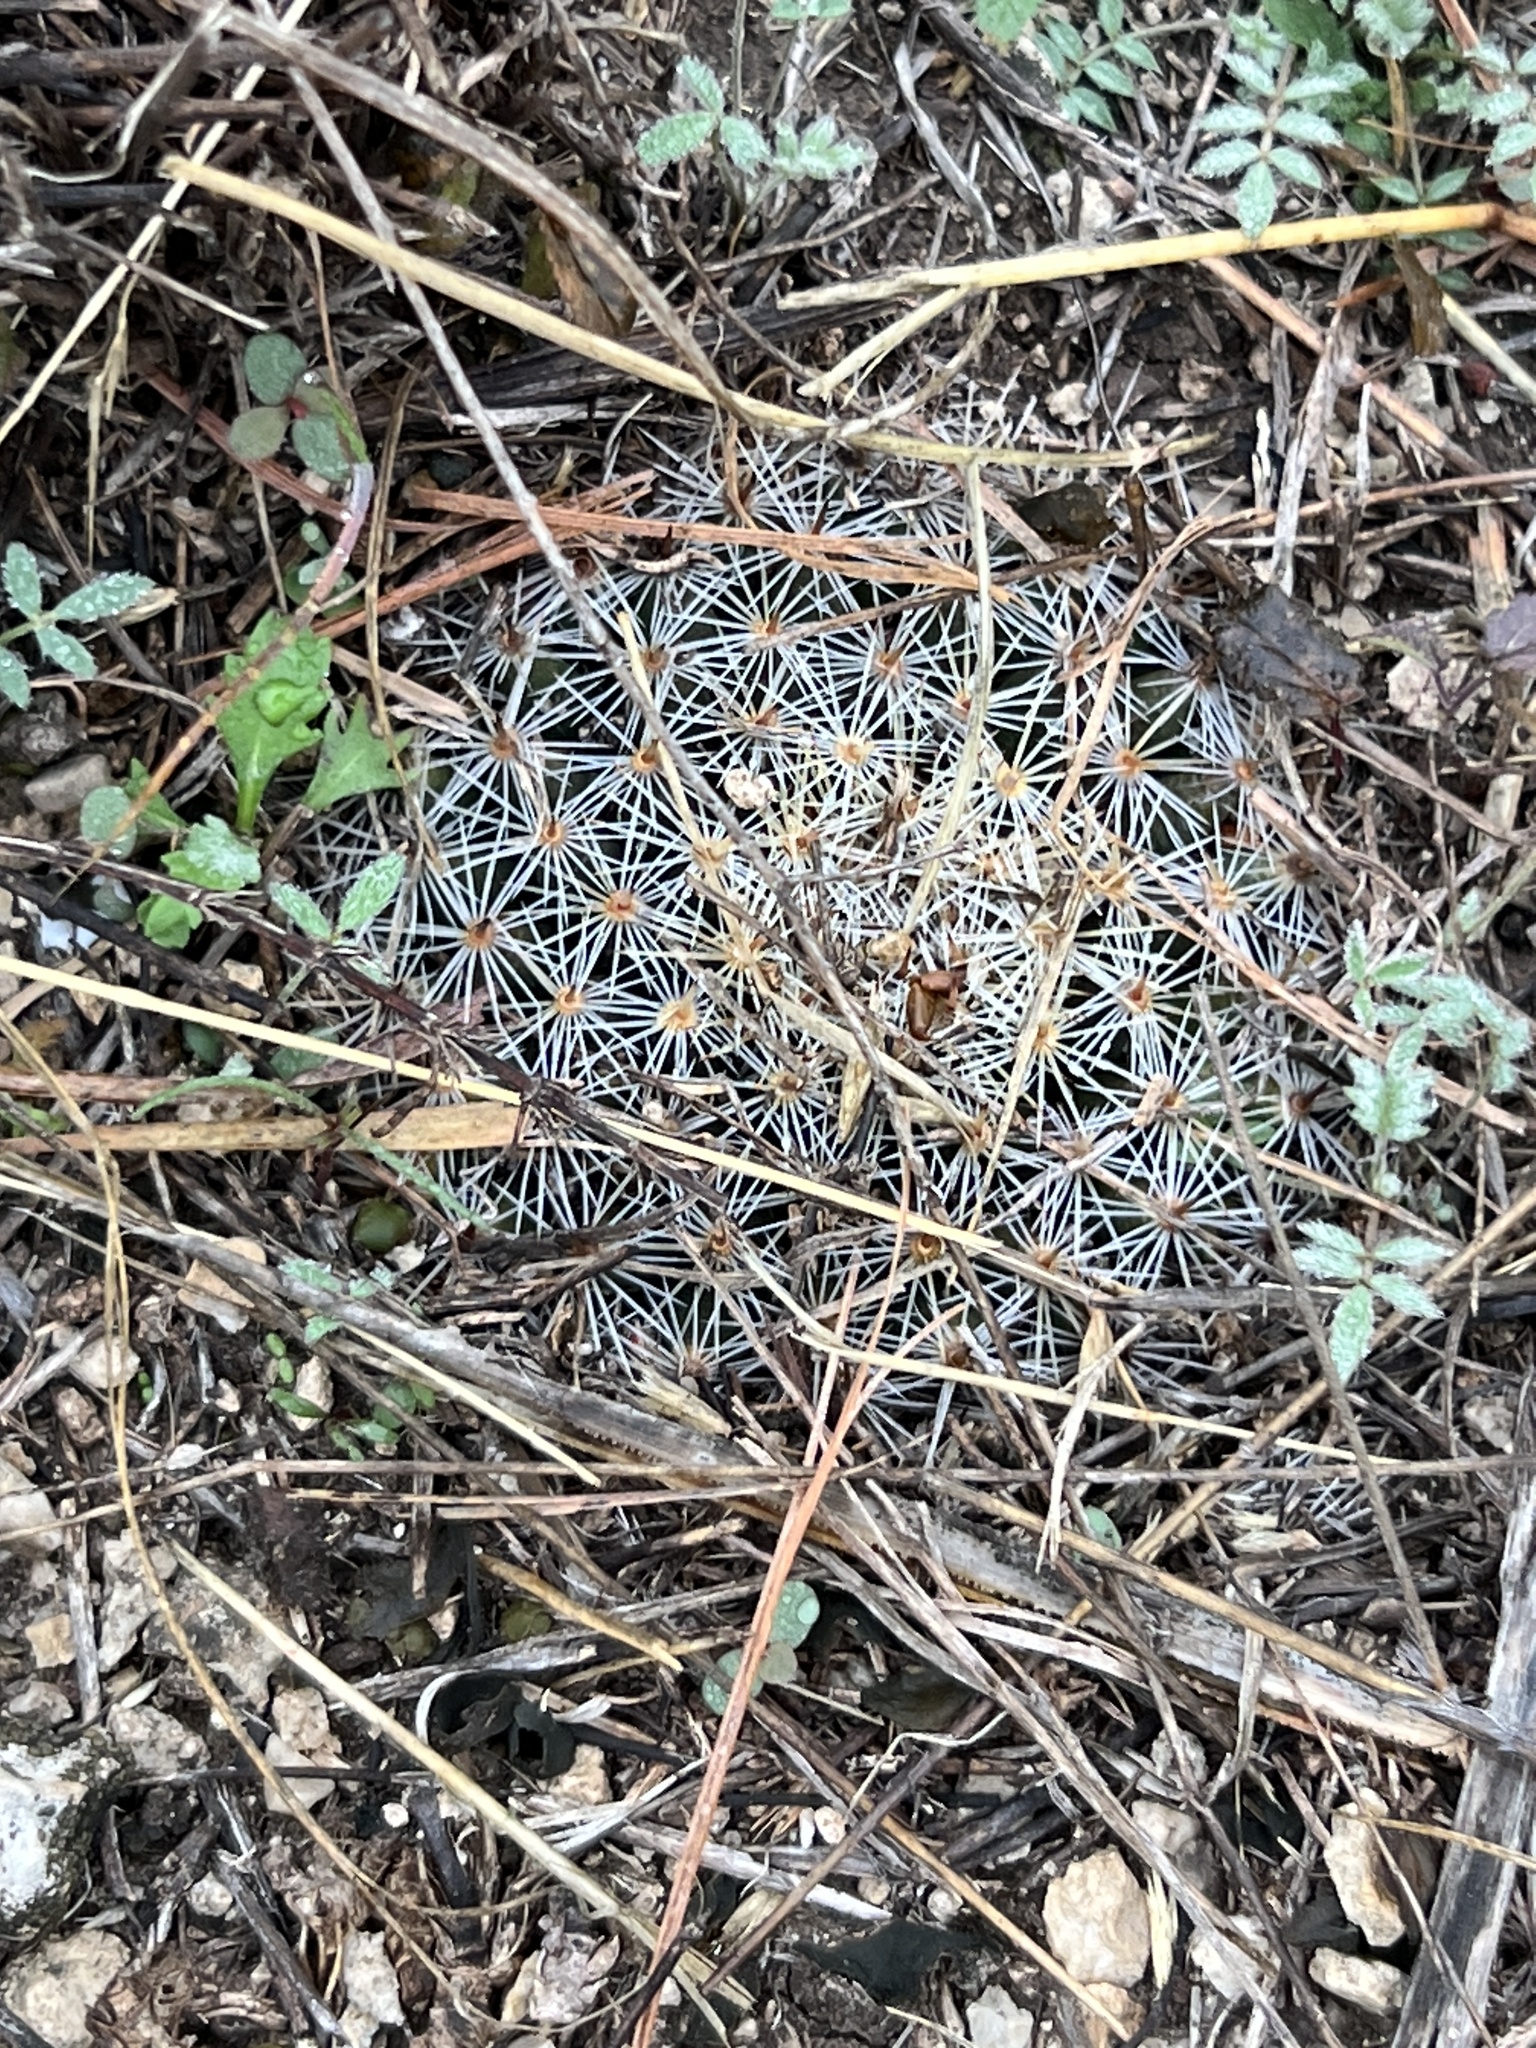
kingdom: Plantae
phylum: Tracheophyta
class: Magnoliopsida
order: Caryophyllales
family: Cactaceae
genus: Mammillaria
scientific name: Mammillaria heyderi
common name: Little nipple cactus
